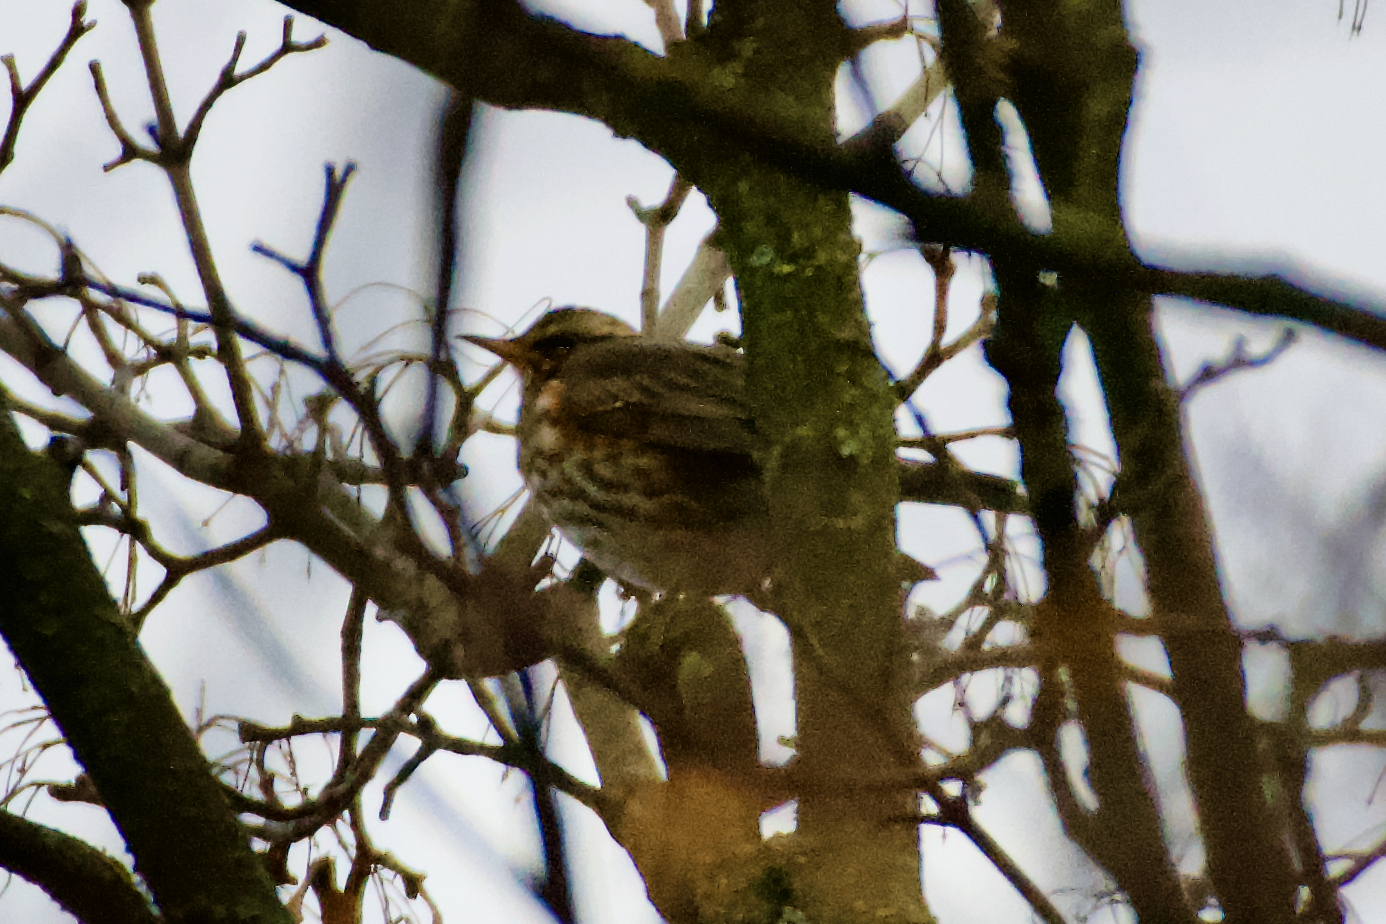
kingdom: Animalia
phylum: Chordata
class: Aves
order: Passeriformes
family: Turdidae
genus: Turdus
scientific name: Turdus iliacus
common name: Redwing
